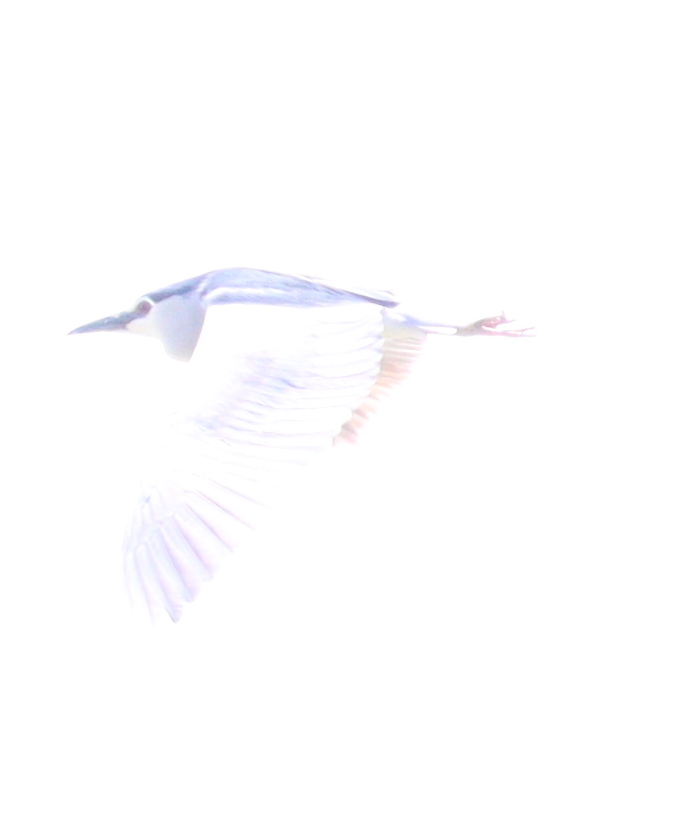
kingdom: Animalia
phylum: Chordata
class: Aves
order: Pelecaniformes
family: Ardeidae
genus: Nycticorax
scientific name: Nycticorax nycticorax
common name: Black-crowned night heron
